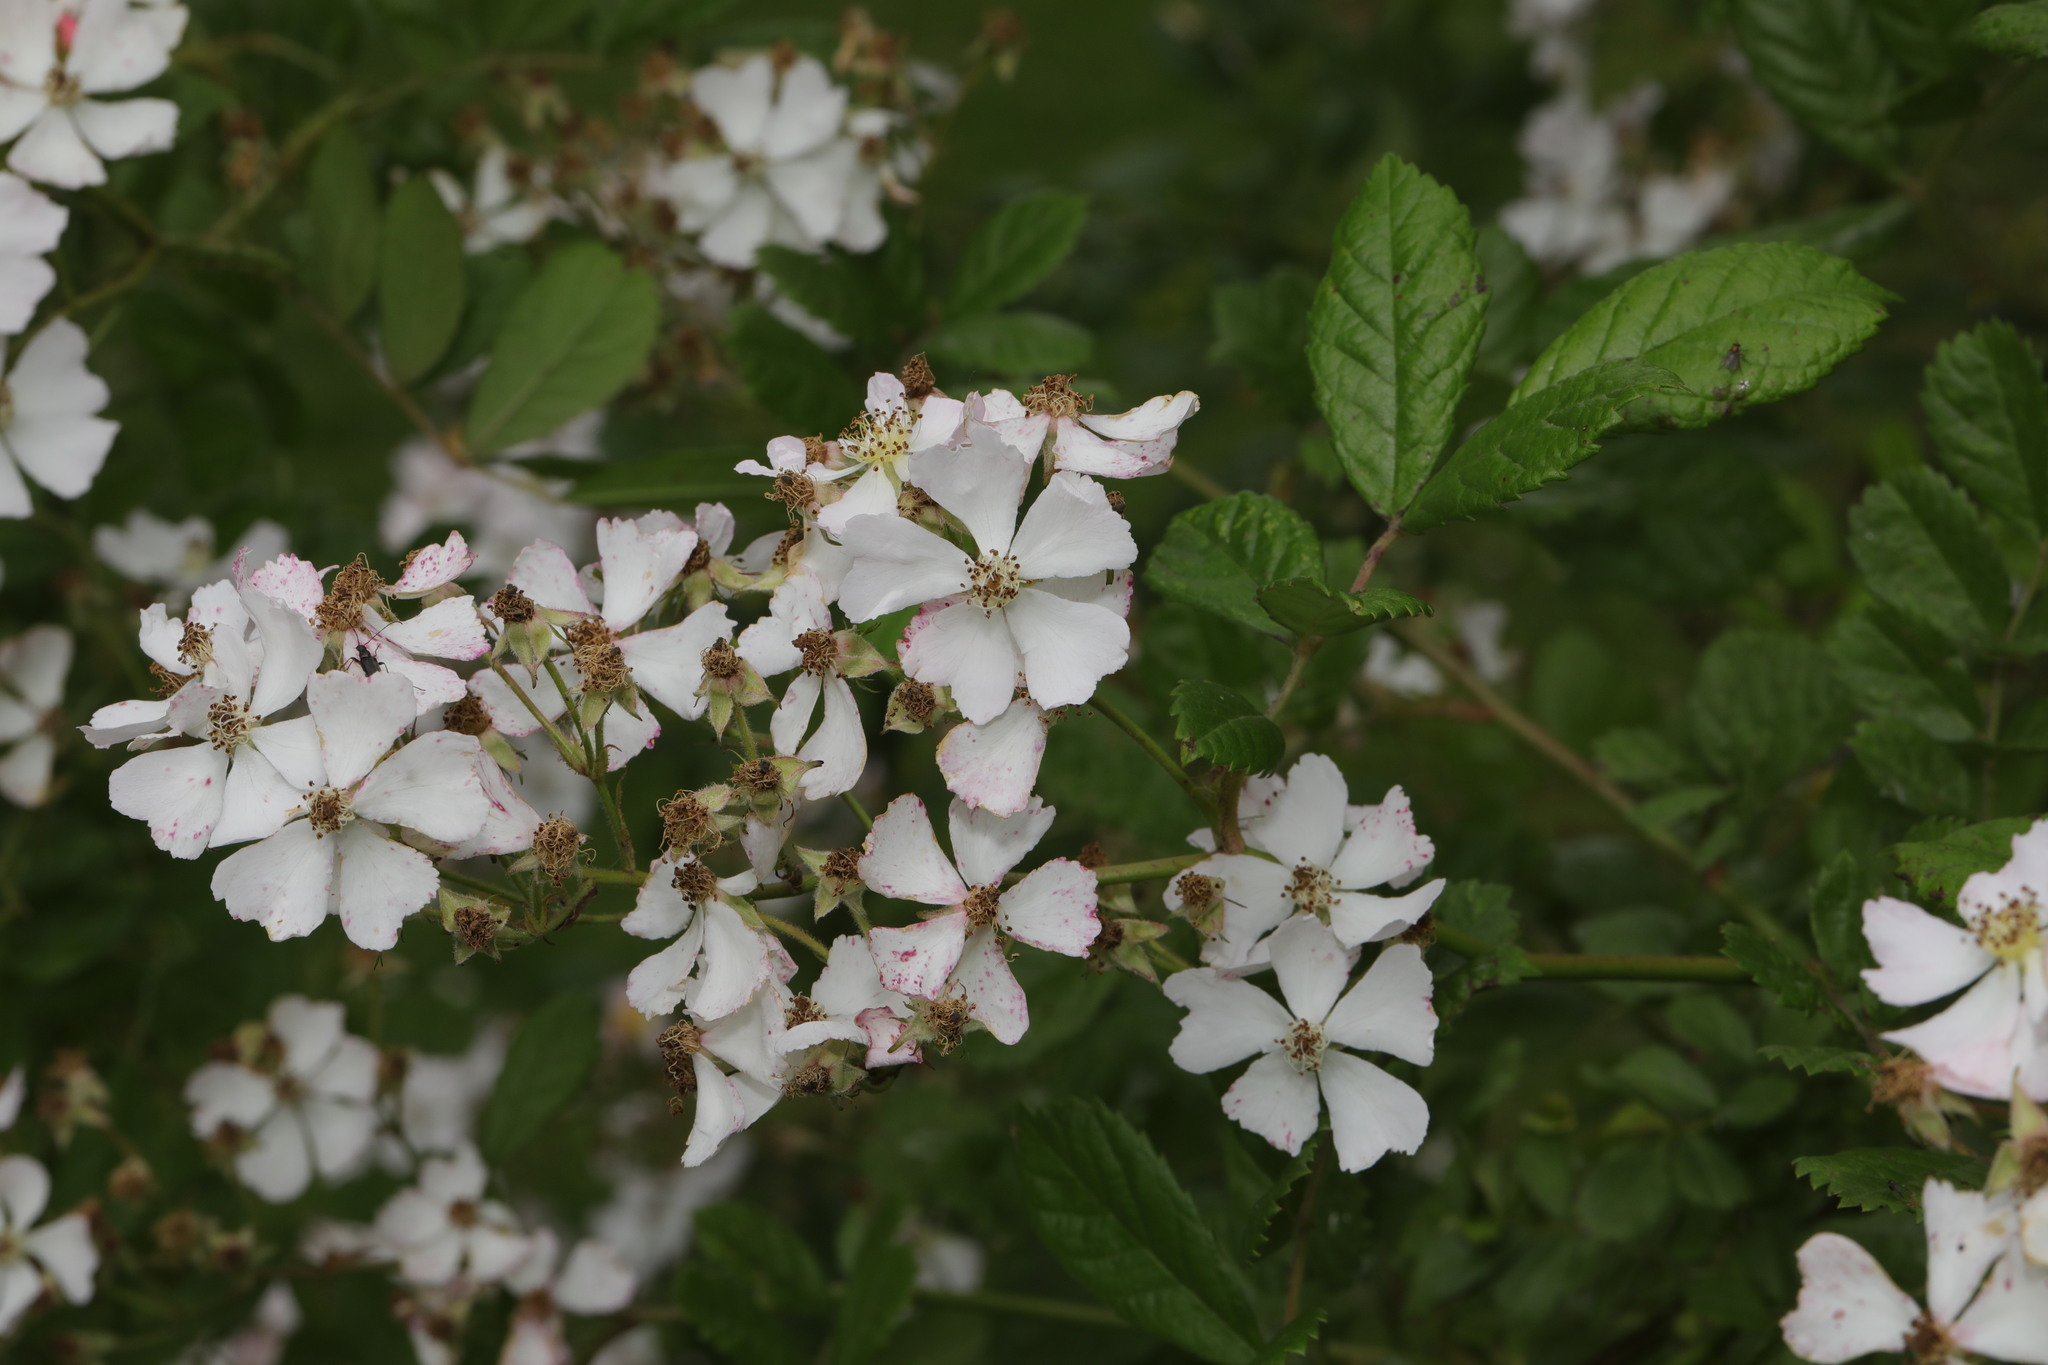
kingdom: Plantae
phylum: Tracheophyta
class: Magnoliopsida
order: Rosales
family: Rosaceae
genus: Rosa
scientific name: Rosa multiflora
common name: Multiflora rose
